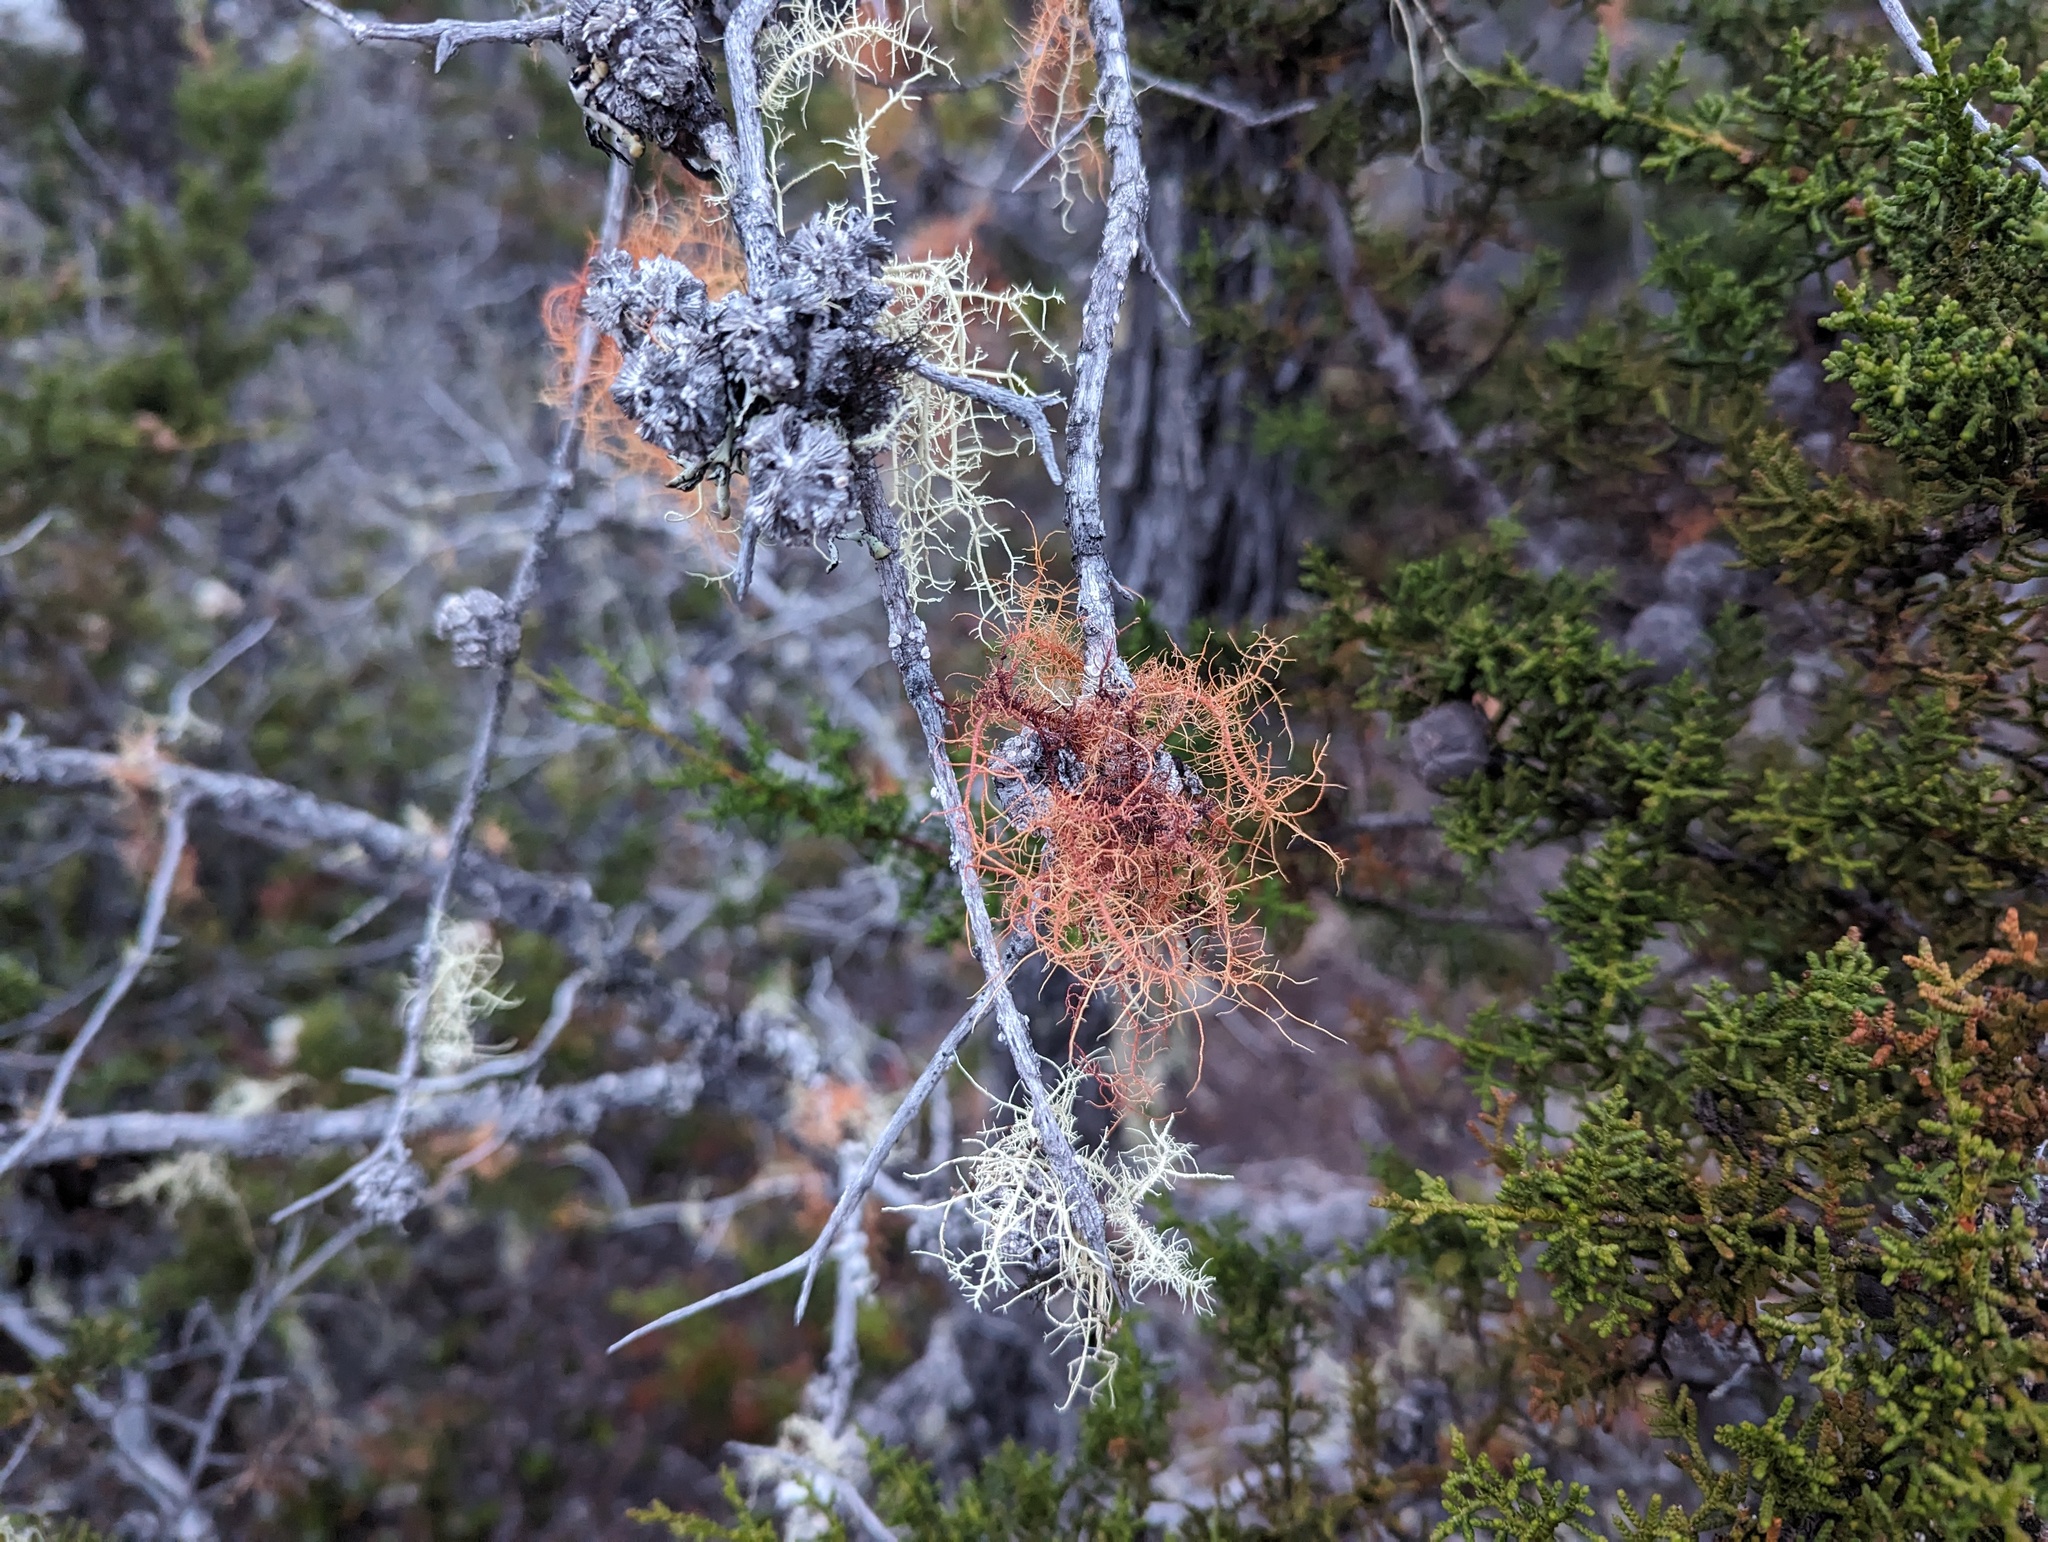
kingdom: Fungi
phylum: Ascomycota
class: Lecanoromycetes
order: Lecanorales
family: Parmeliaceae
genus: Usnea
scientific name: Usnea rubicunda
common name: Red beard lichen
